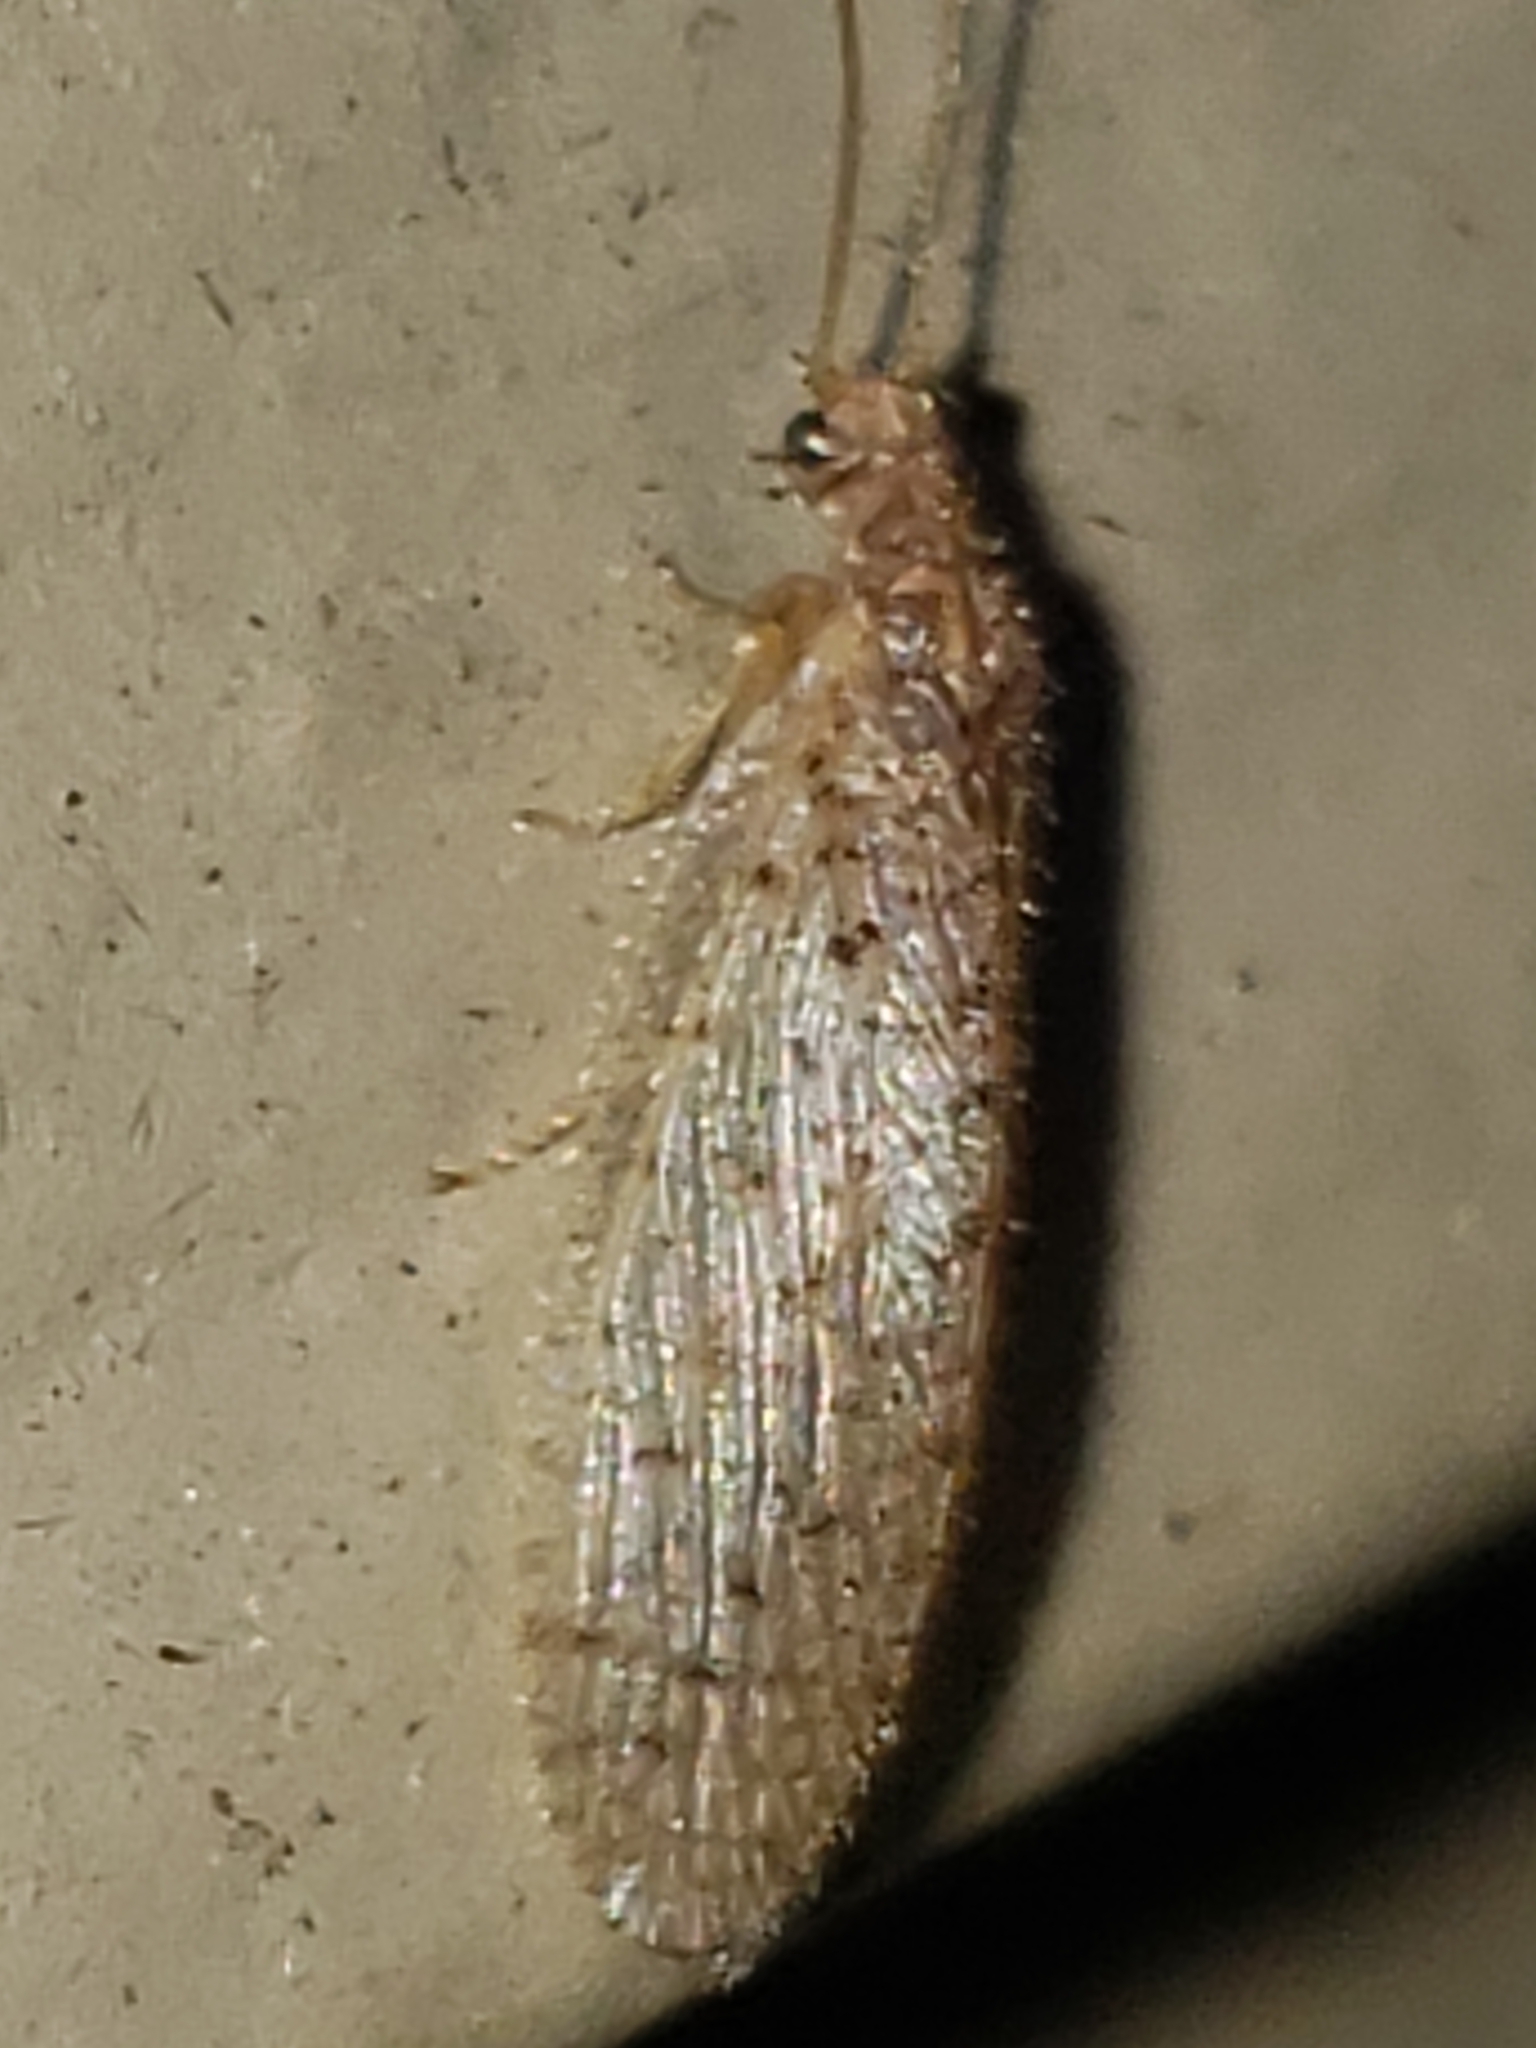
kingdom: Animalia
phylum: Arthropoda
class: Insecta
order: Neuroptera
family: Hemerobiidae
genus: Micromus
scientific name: Micromus subanticus
